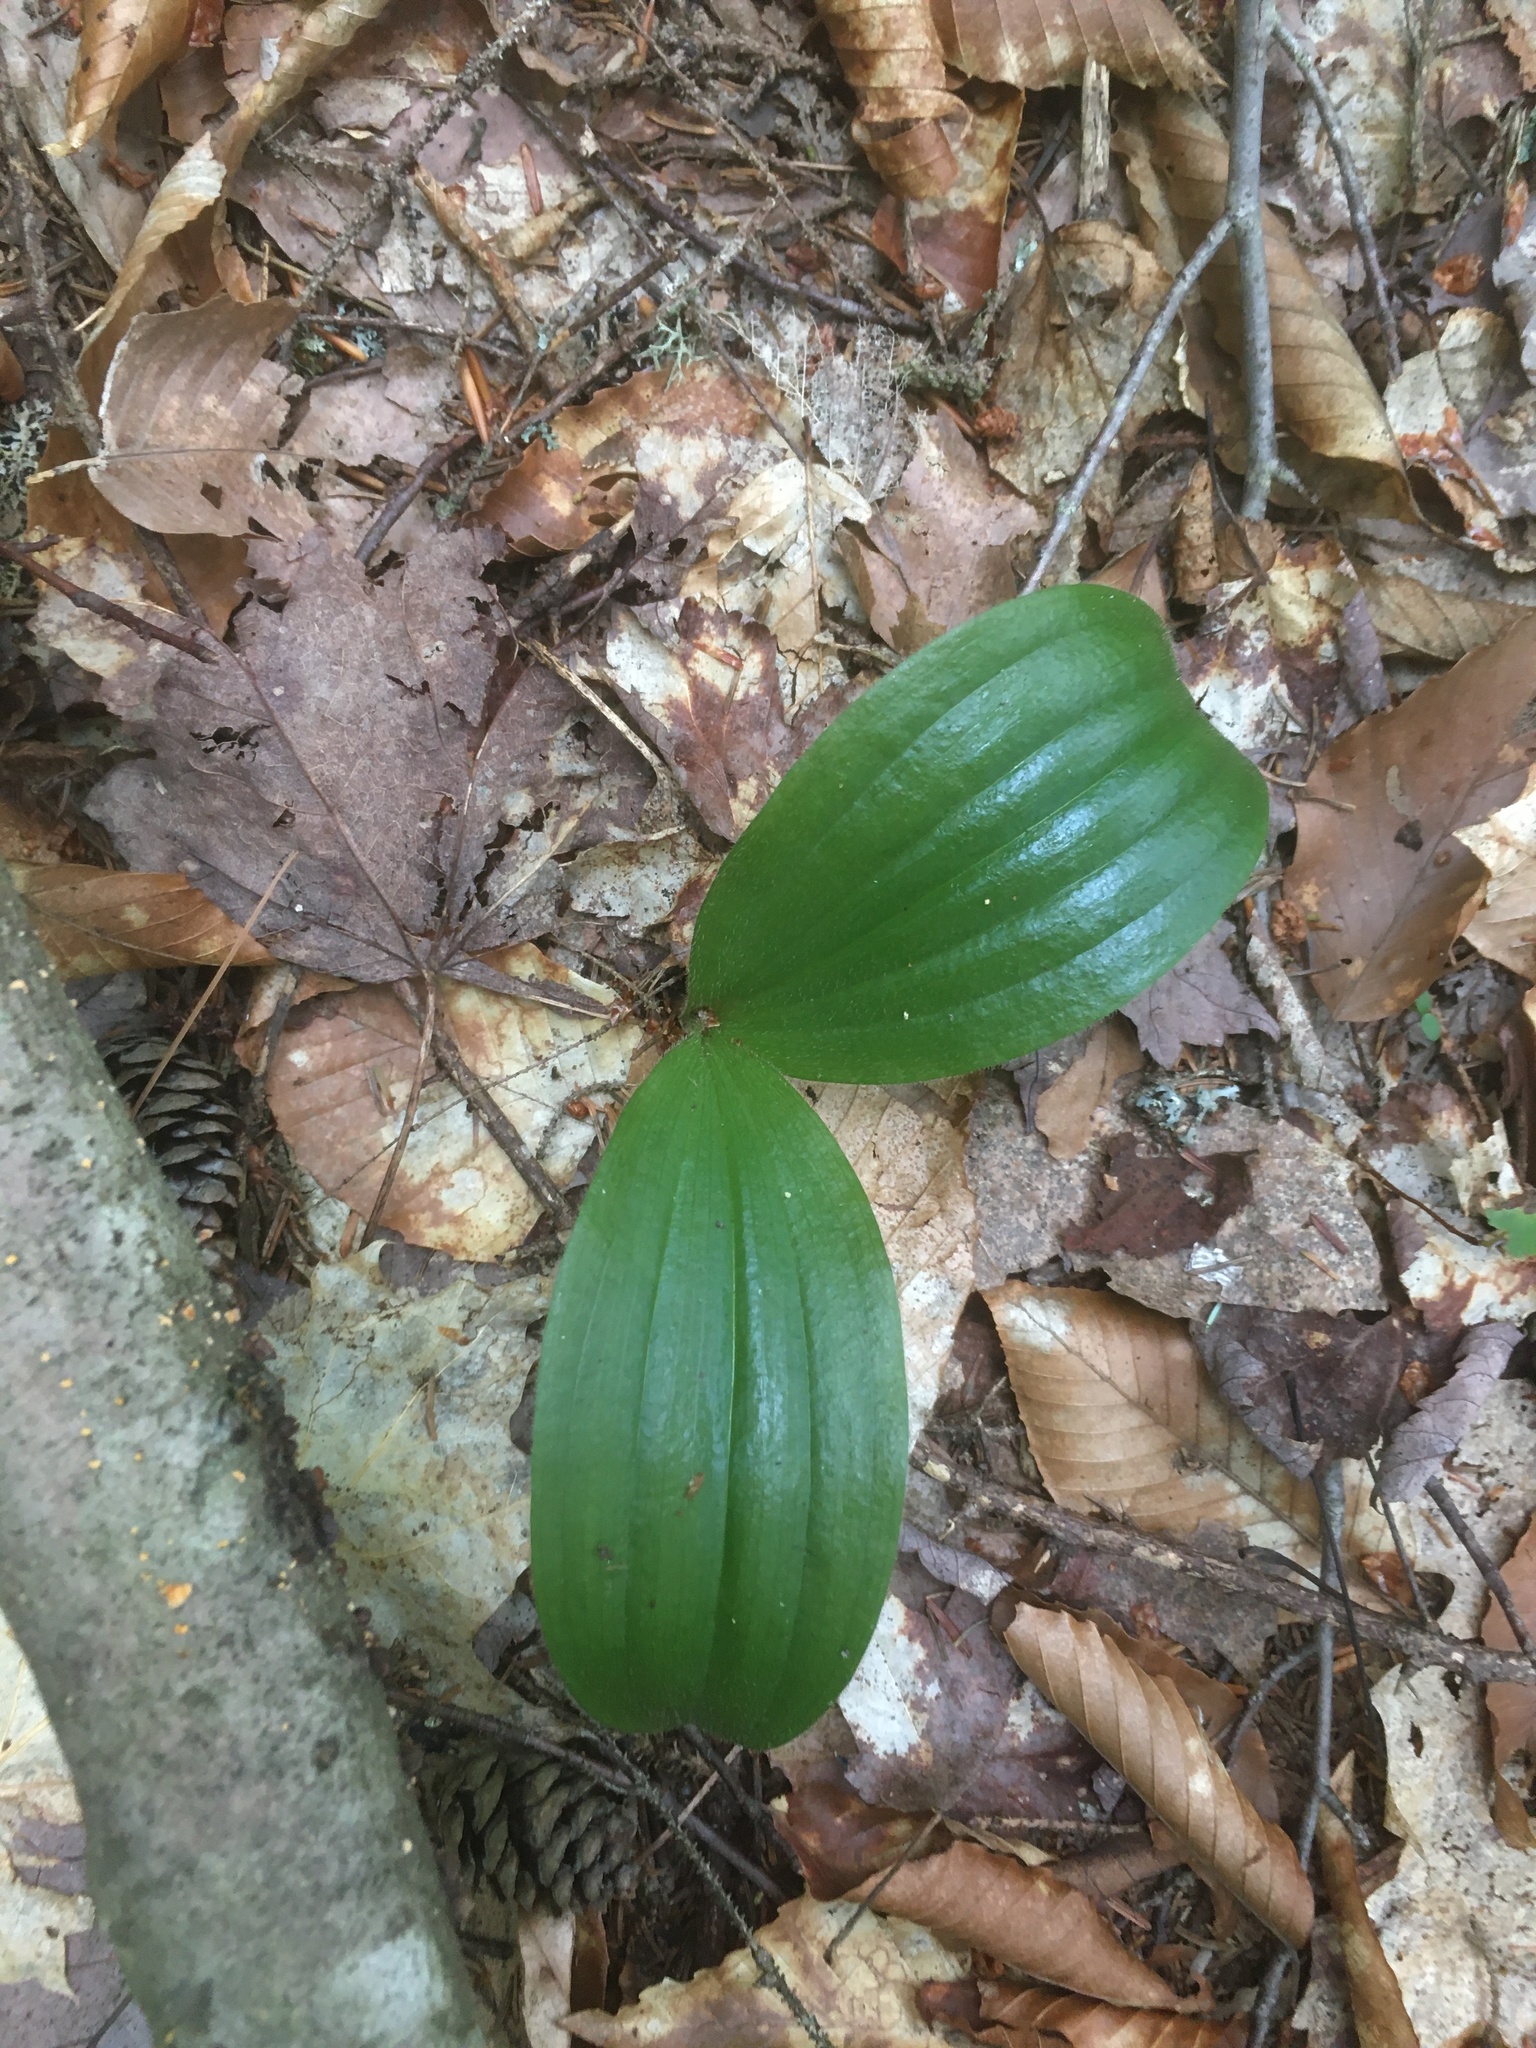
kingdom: Plantae
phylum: Tracheophyta
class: Liliopsida
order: Asparagales
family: Orchidaceae
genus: Cypripedium
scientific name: Cypripedium acaule
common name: Pink lady's-slipper
